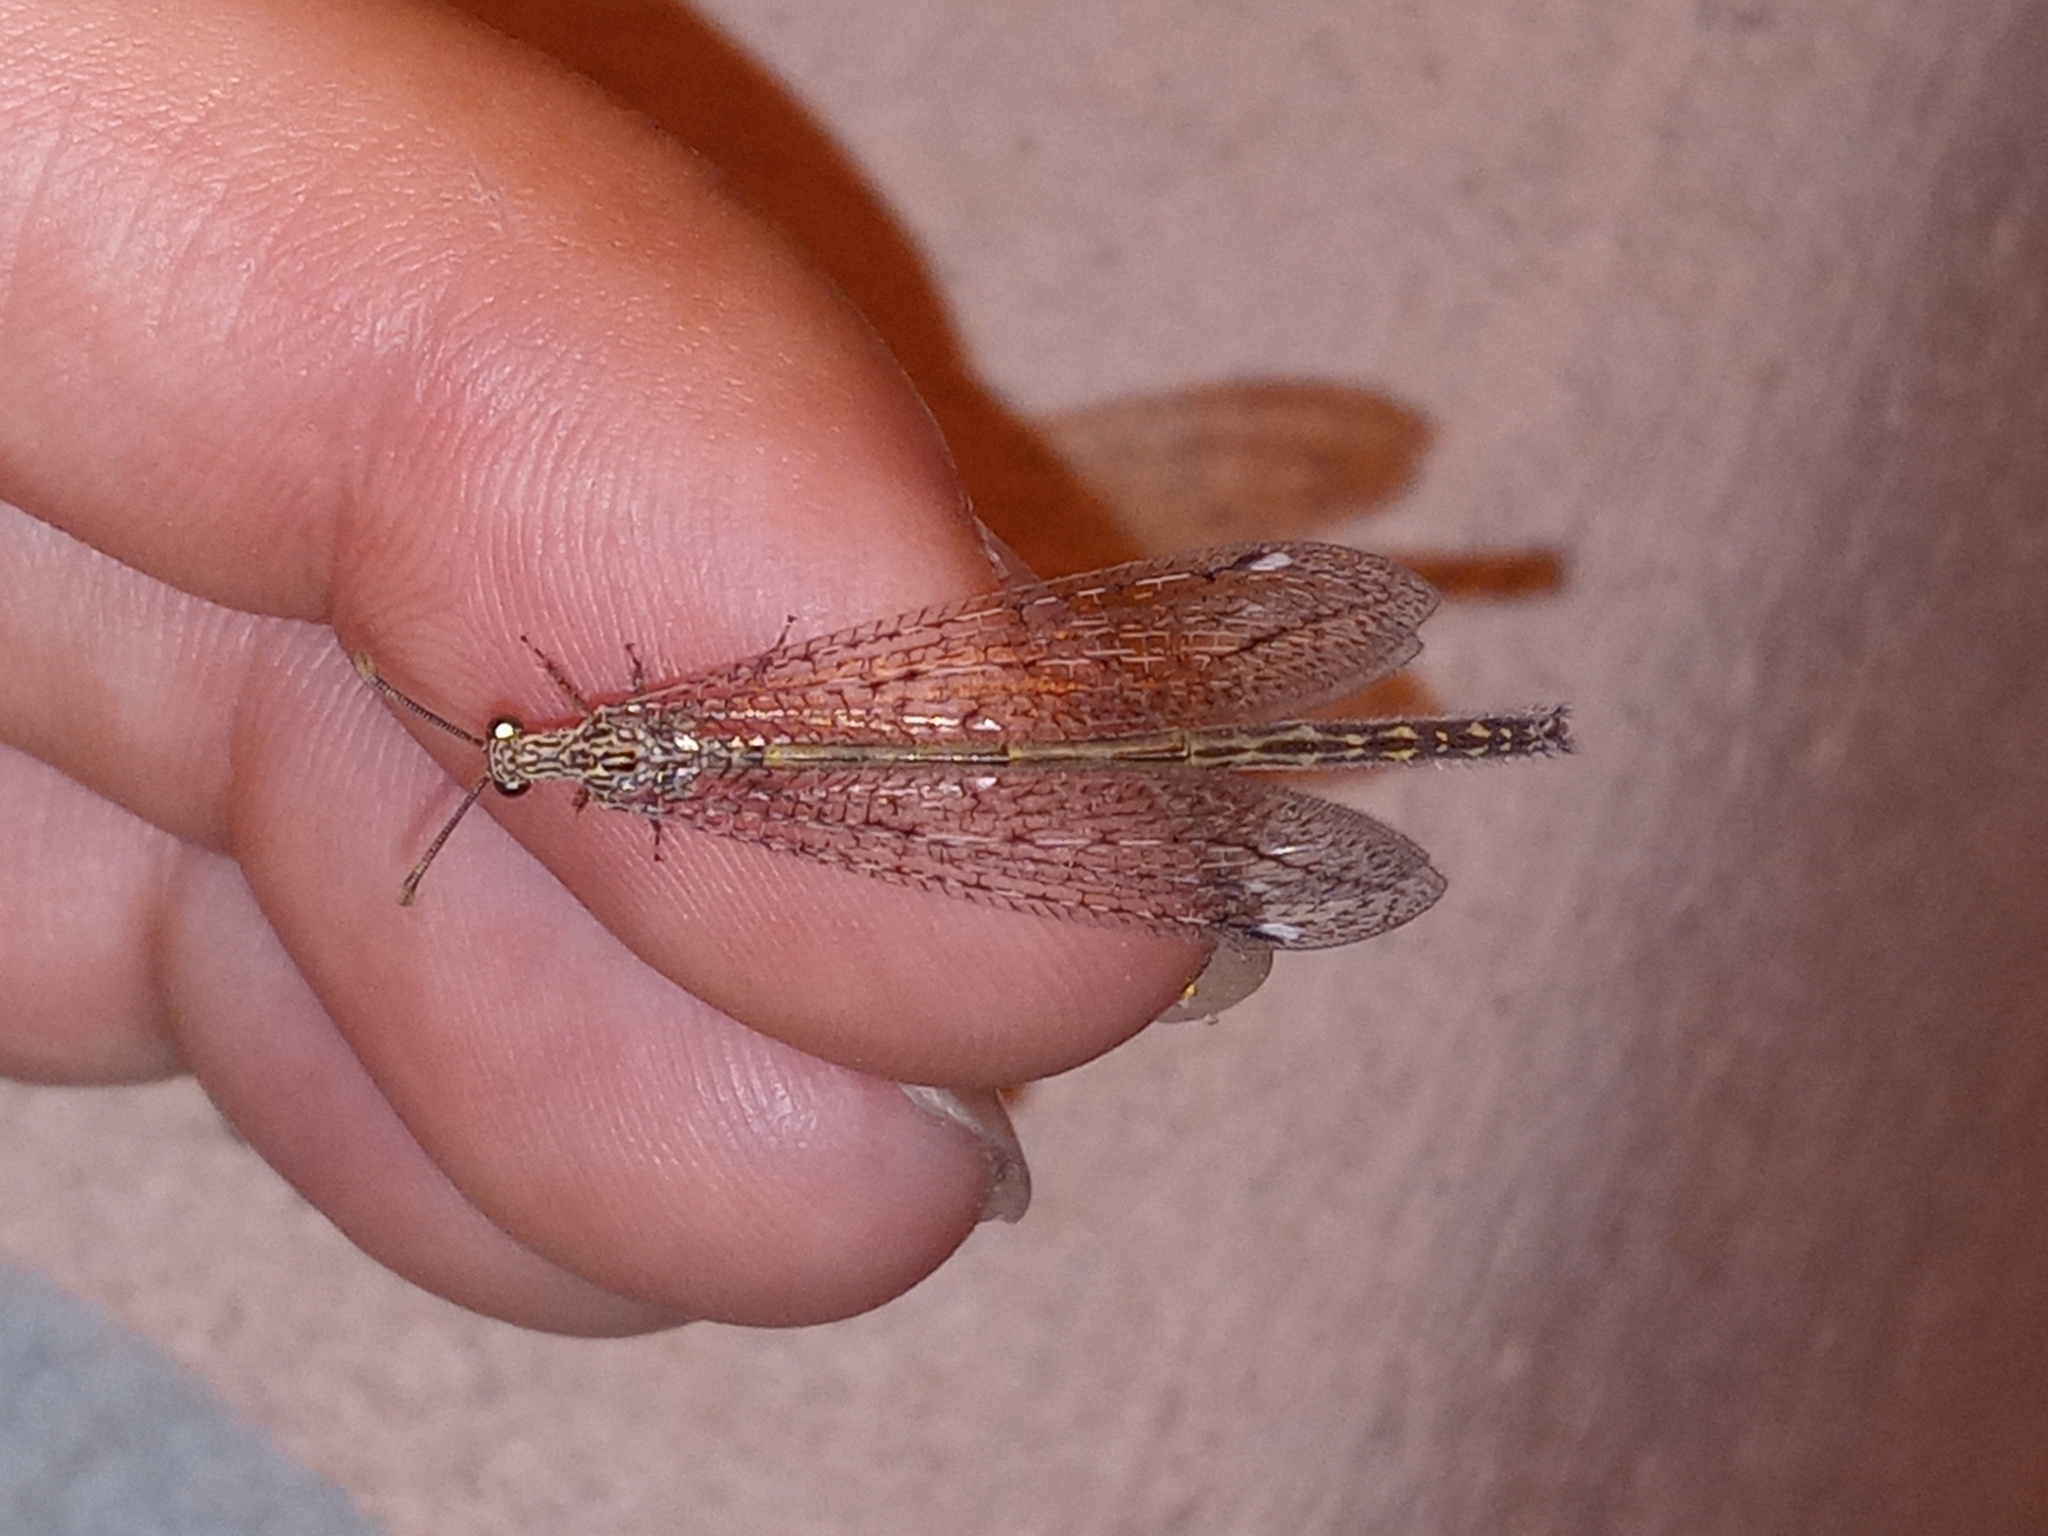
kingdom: Animalia
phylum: Arthropoda
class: Insecta
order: Neuroptera
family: Myrmeleontidae
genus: Mexoleon
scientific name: Mexoleon papago
